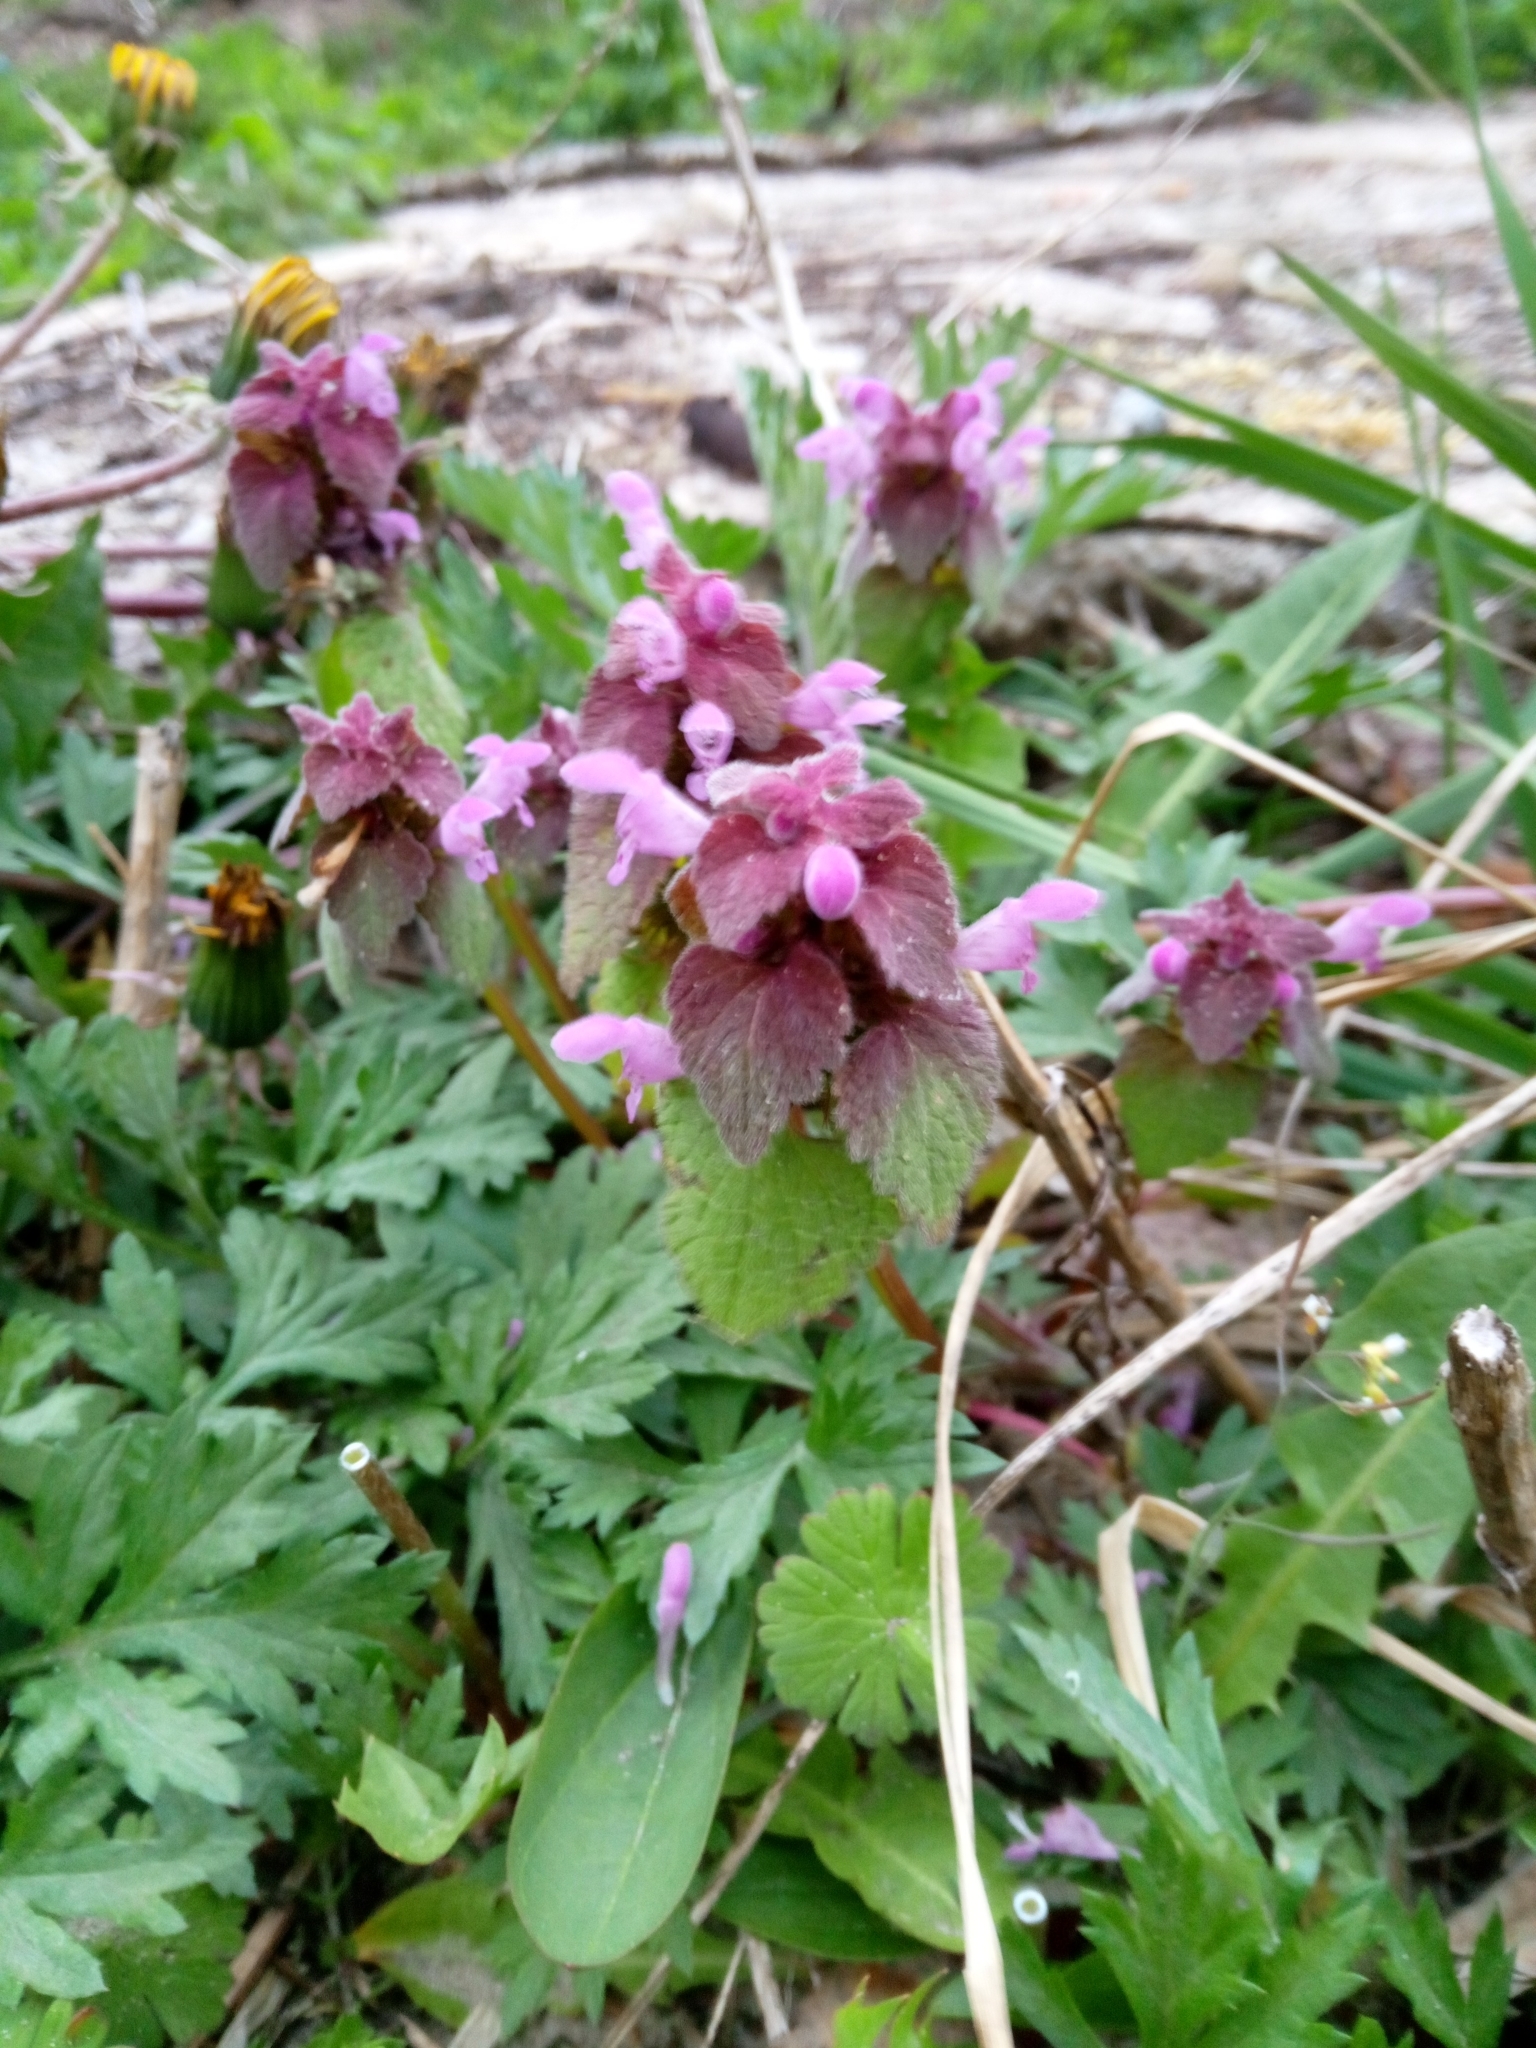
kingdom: Plantae
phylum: Tracheophyta
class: Magnoliopsida
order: Lamiales
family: Lamiaceae
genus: Lamium
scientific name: Lamium purpureum
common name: Red dead-nettle
